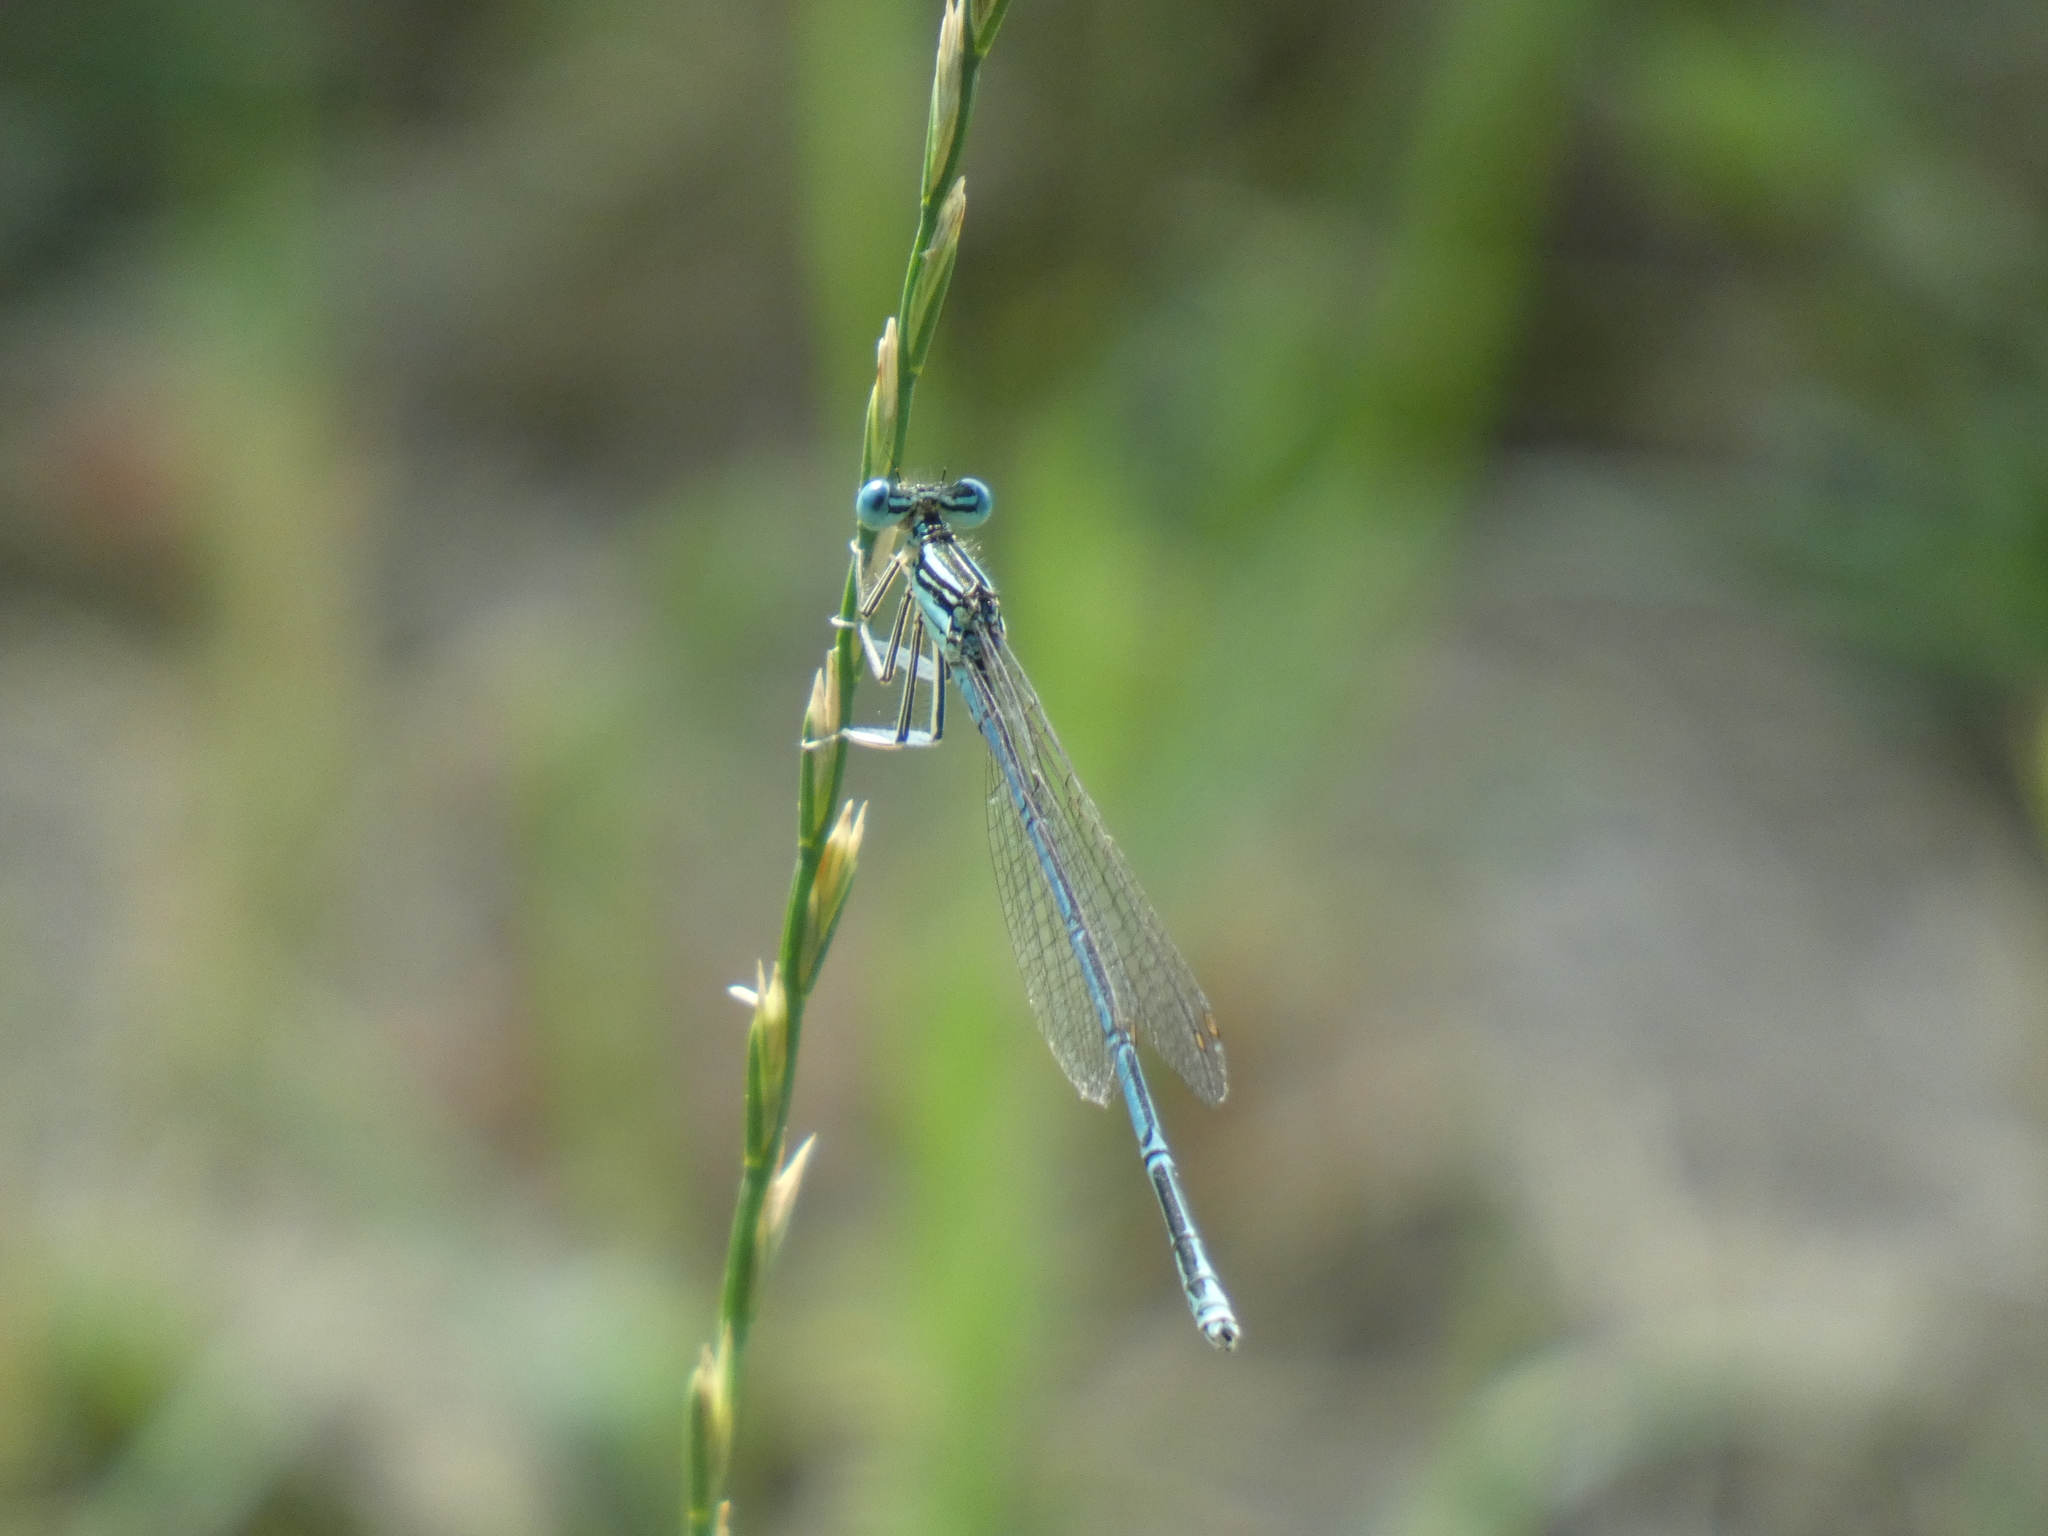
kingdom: Animalia
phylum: Arthropoda
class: Insecta
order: Odonata
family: Platycnemididae
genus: Platycnemis
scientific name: Platycnemis pennipes
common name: White-legged damselfly
